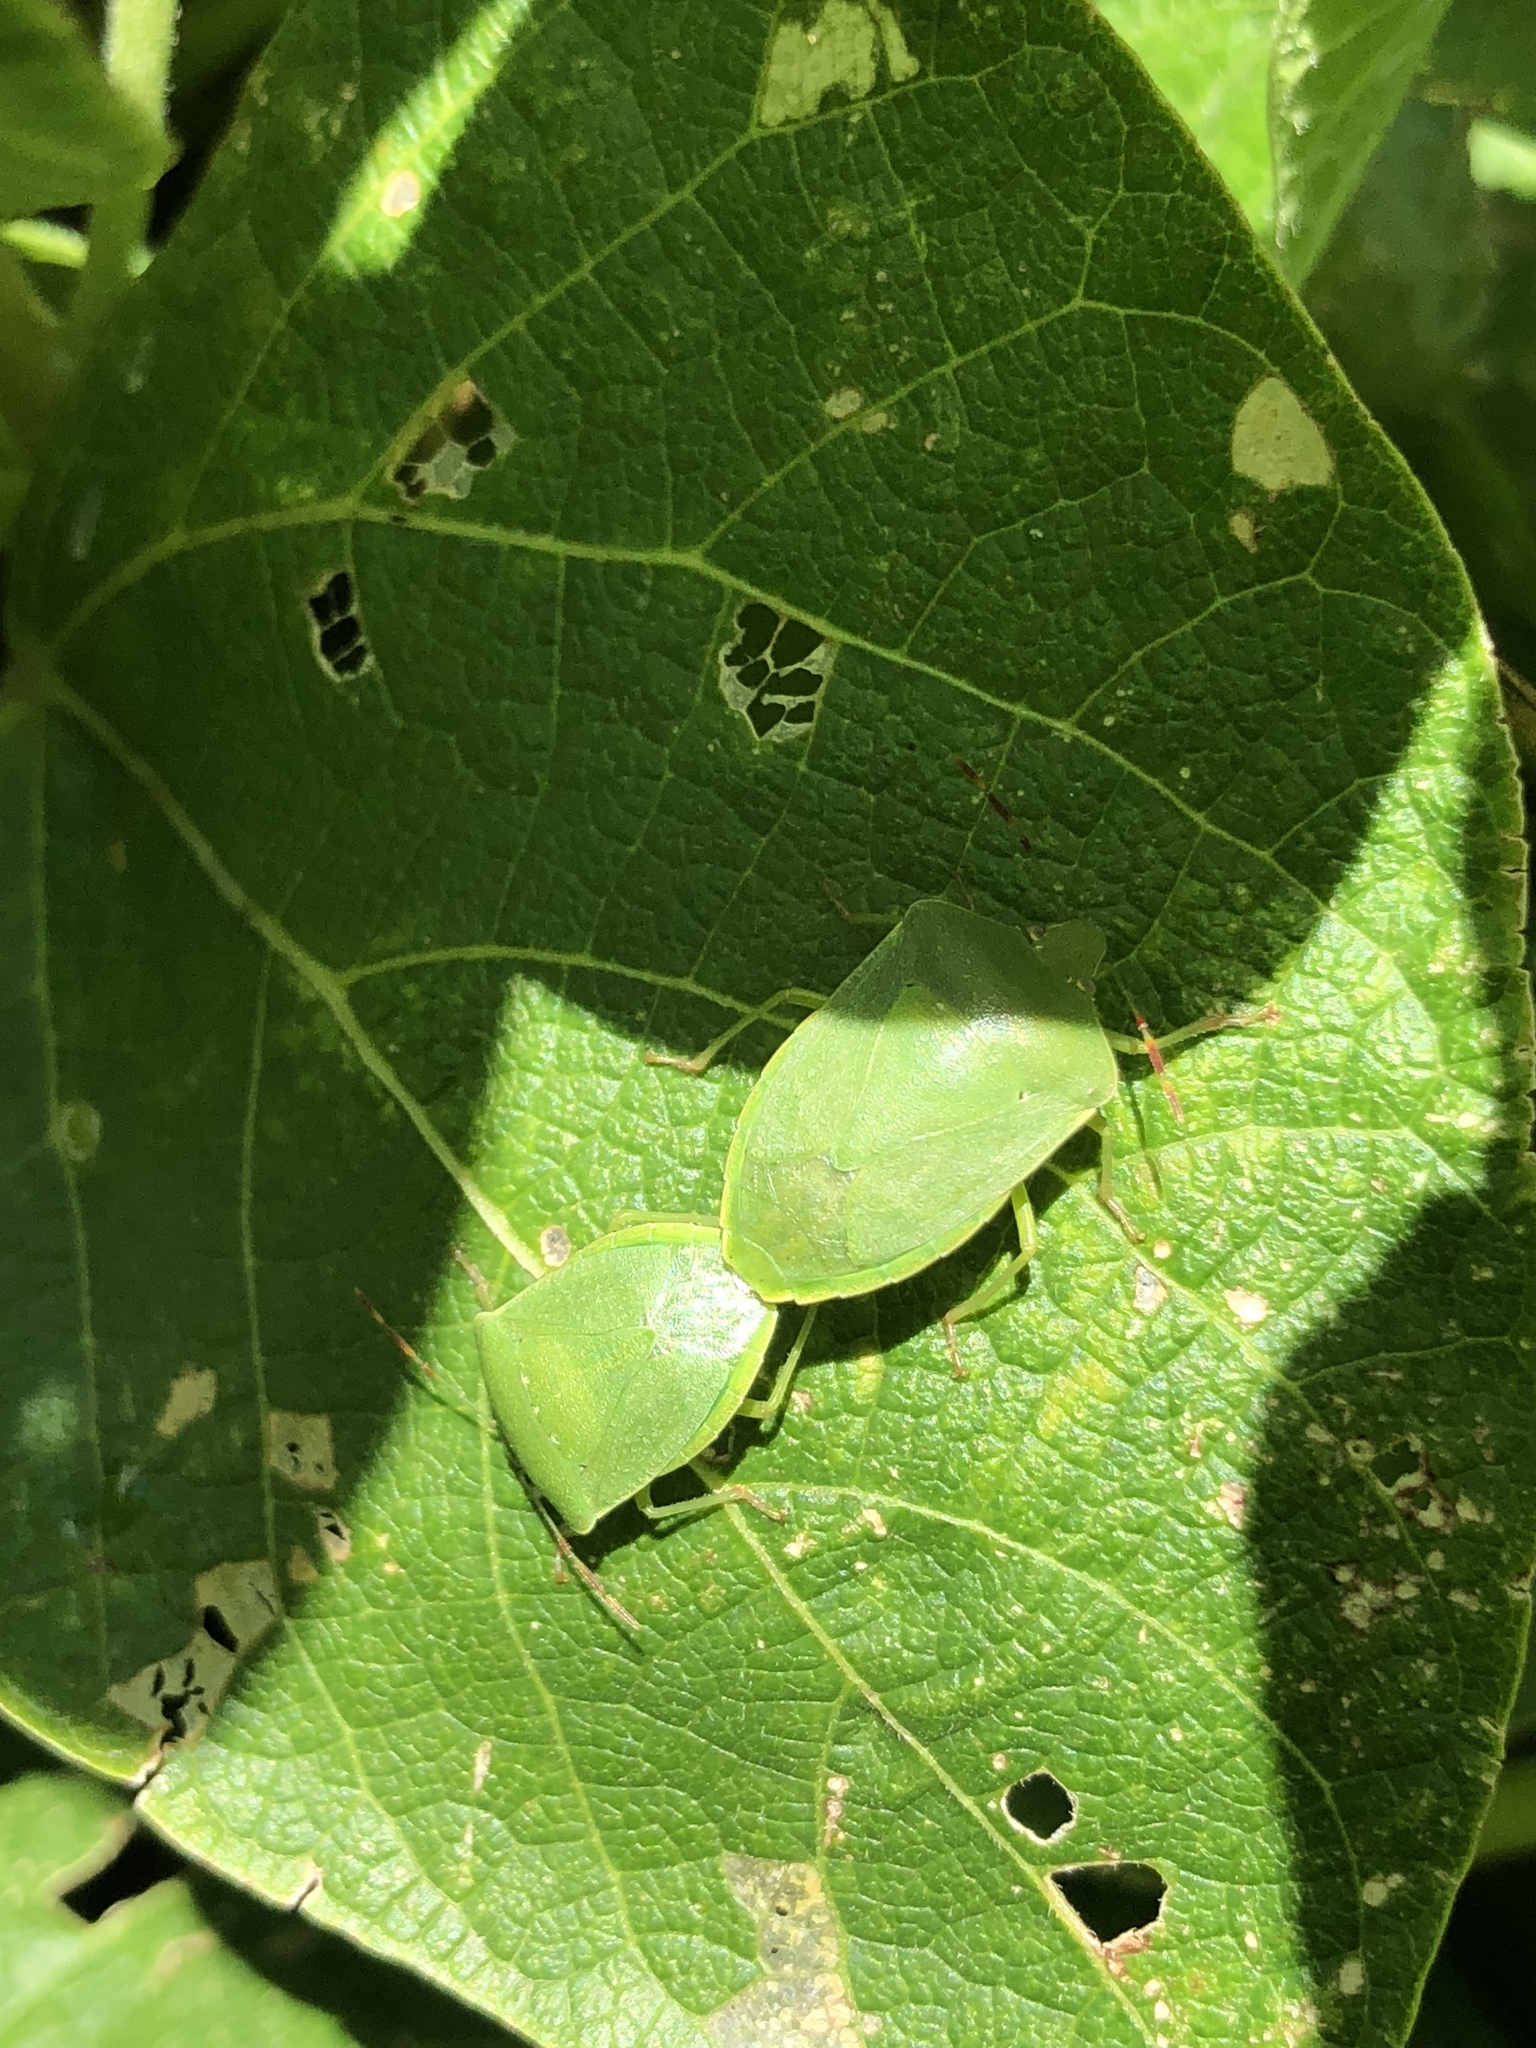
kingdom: Animalia
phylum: Arthropoda
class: Insecta
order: Hemiptera
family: Pentatomidae
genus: Nezara
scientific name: Nezara viridula
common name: Southern green stink bug
